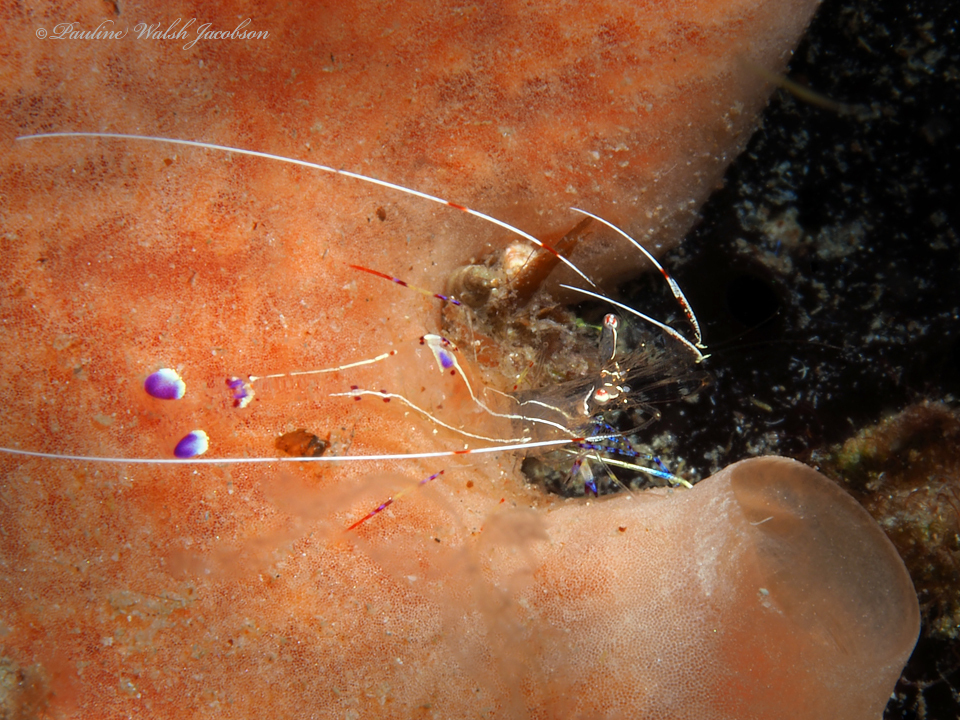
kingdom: Animalia
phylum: Arthropoda
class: Malacostraca
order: Decapoda
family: Palaemonidae
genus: Ancylomenes
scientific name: Ancylomenes pedersoni
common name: Pederson's cleaning shrimp
